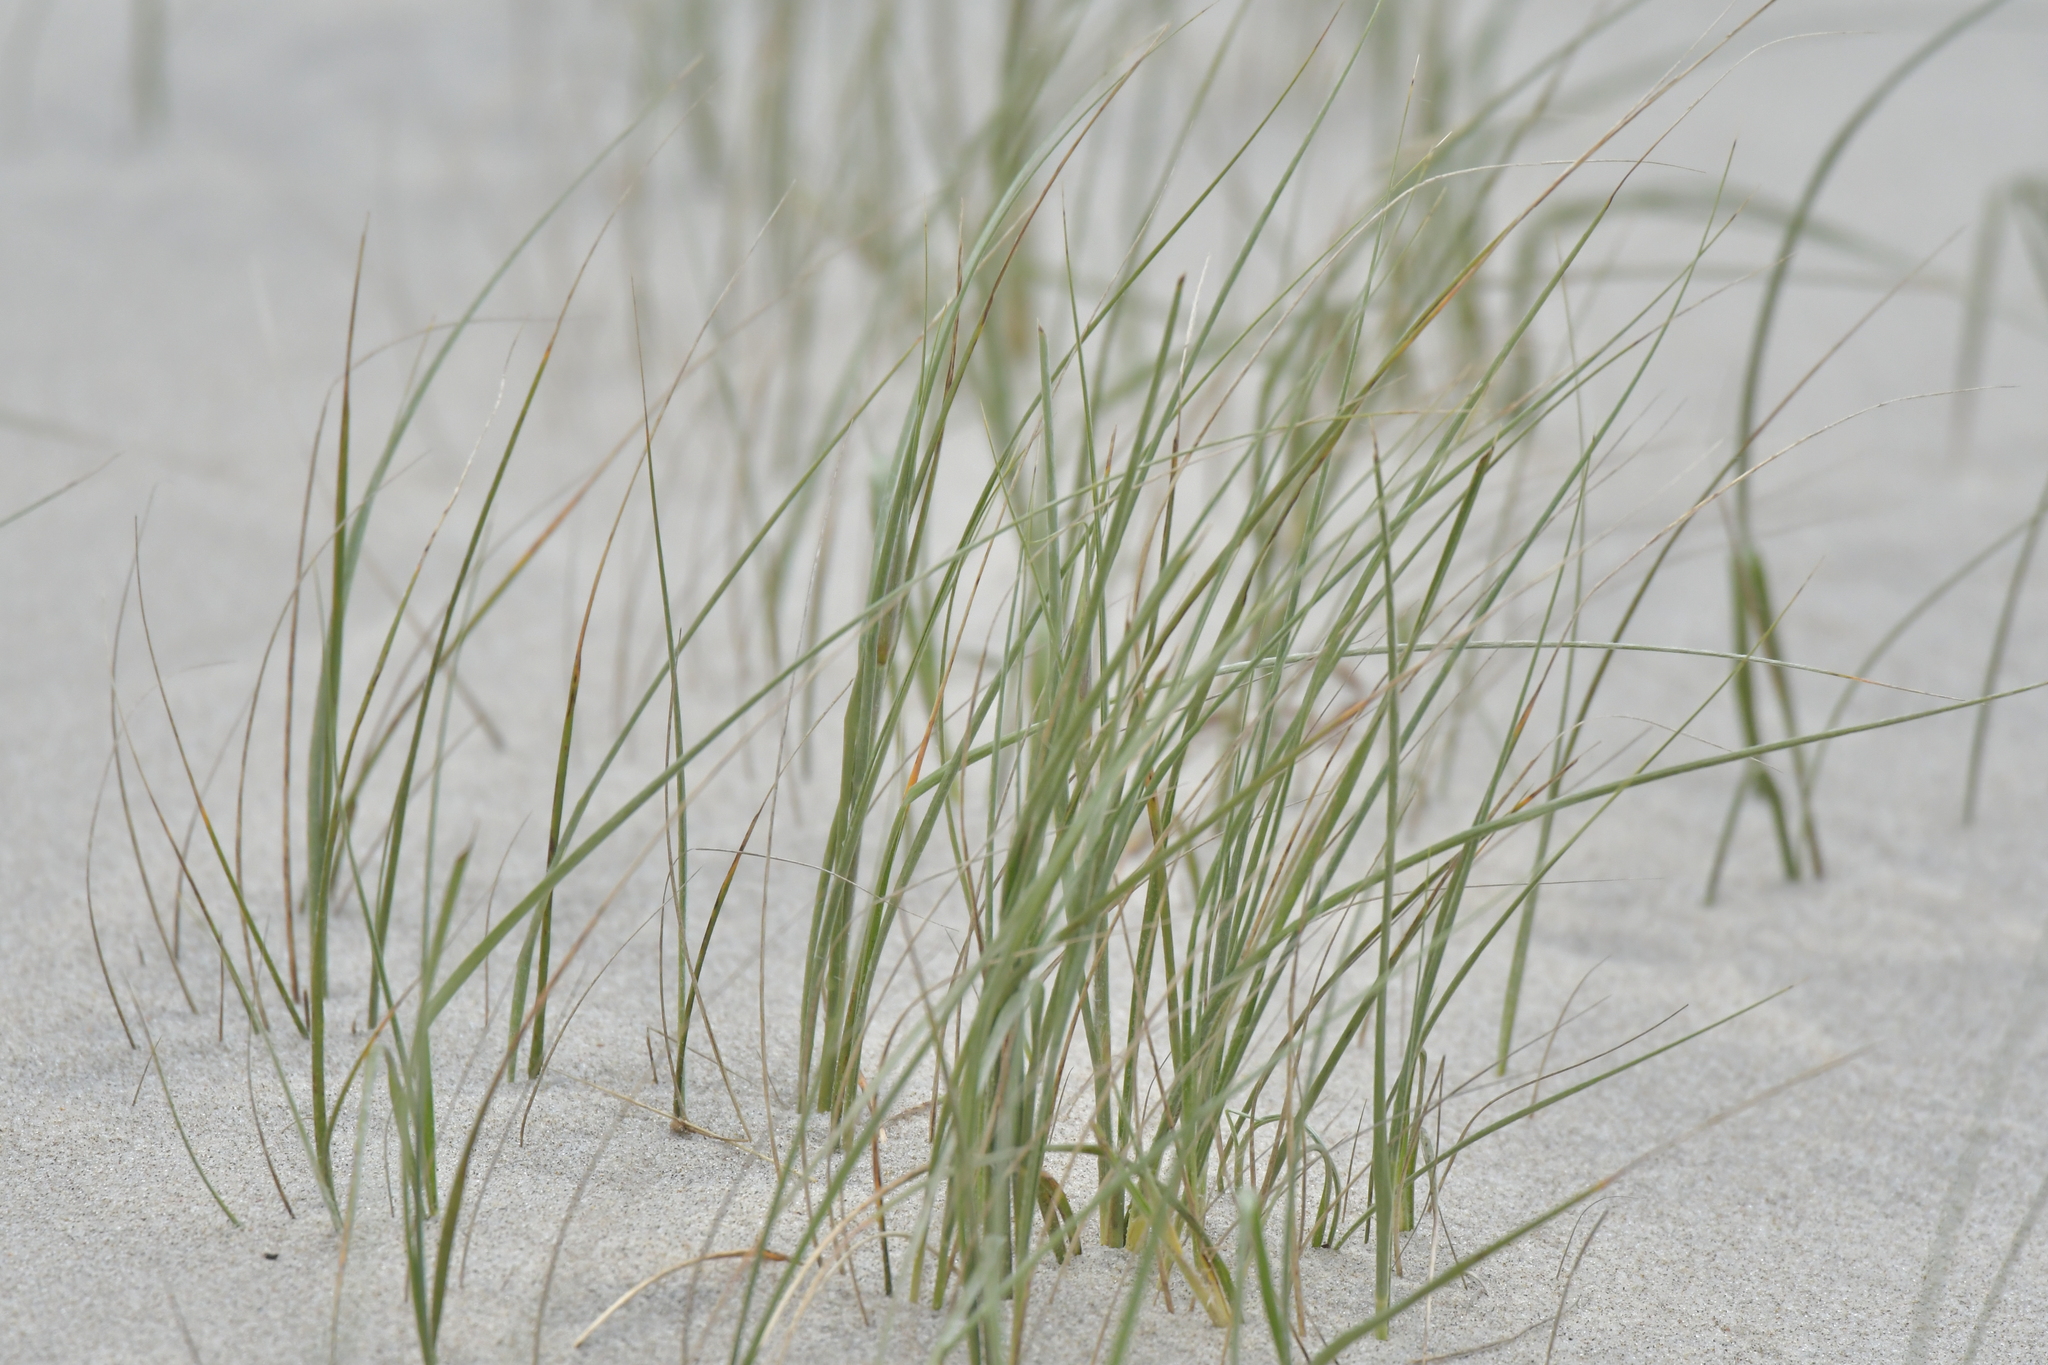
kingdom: Plantae
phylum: Tracheophyta
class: Liliopsida
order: Poales
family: Poaceae
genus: Spinifex
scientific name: Spinifex sericeus
